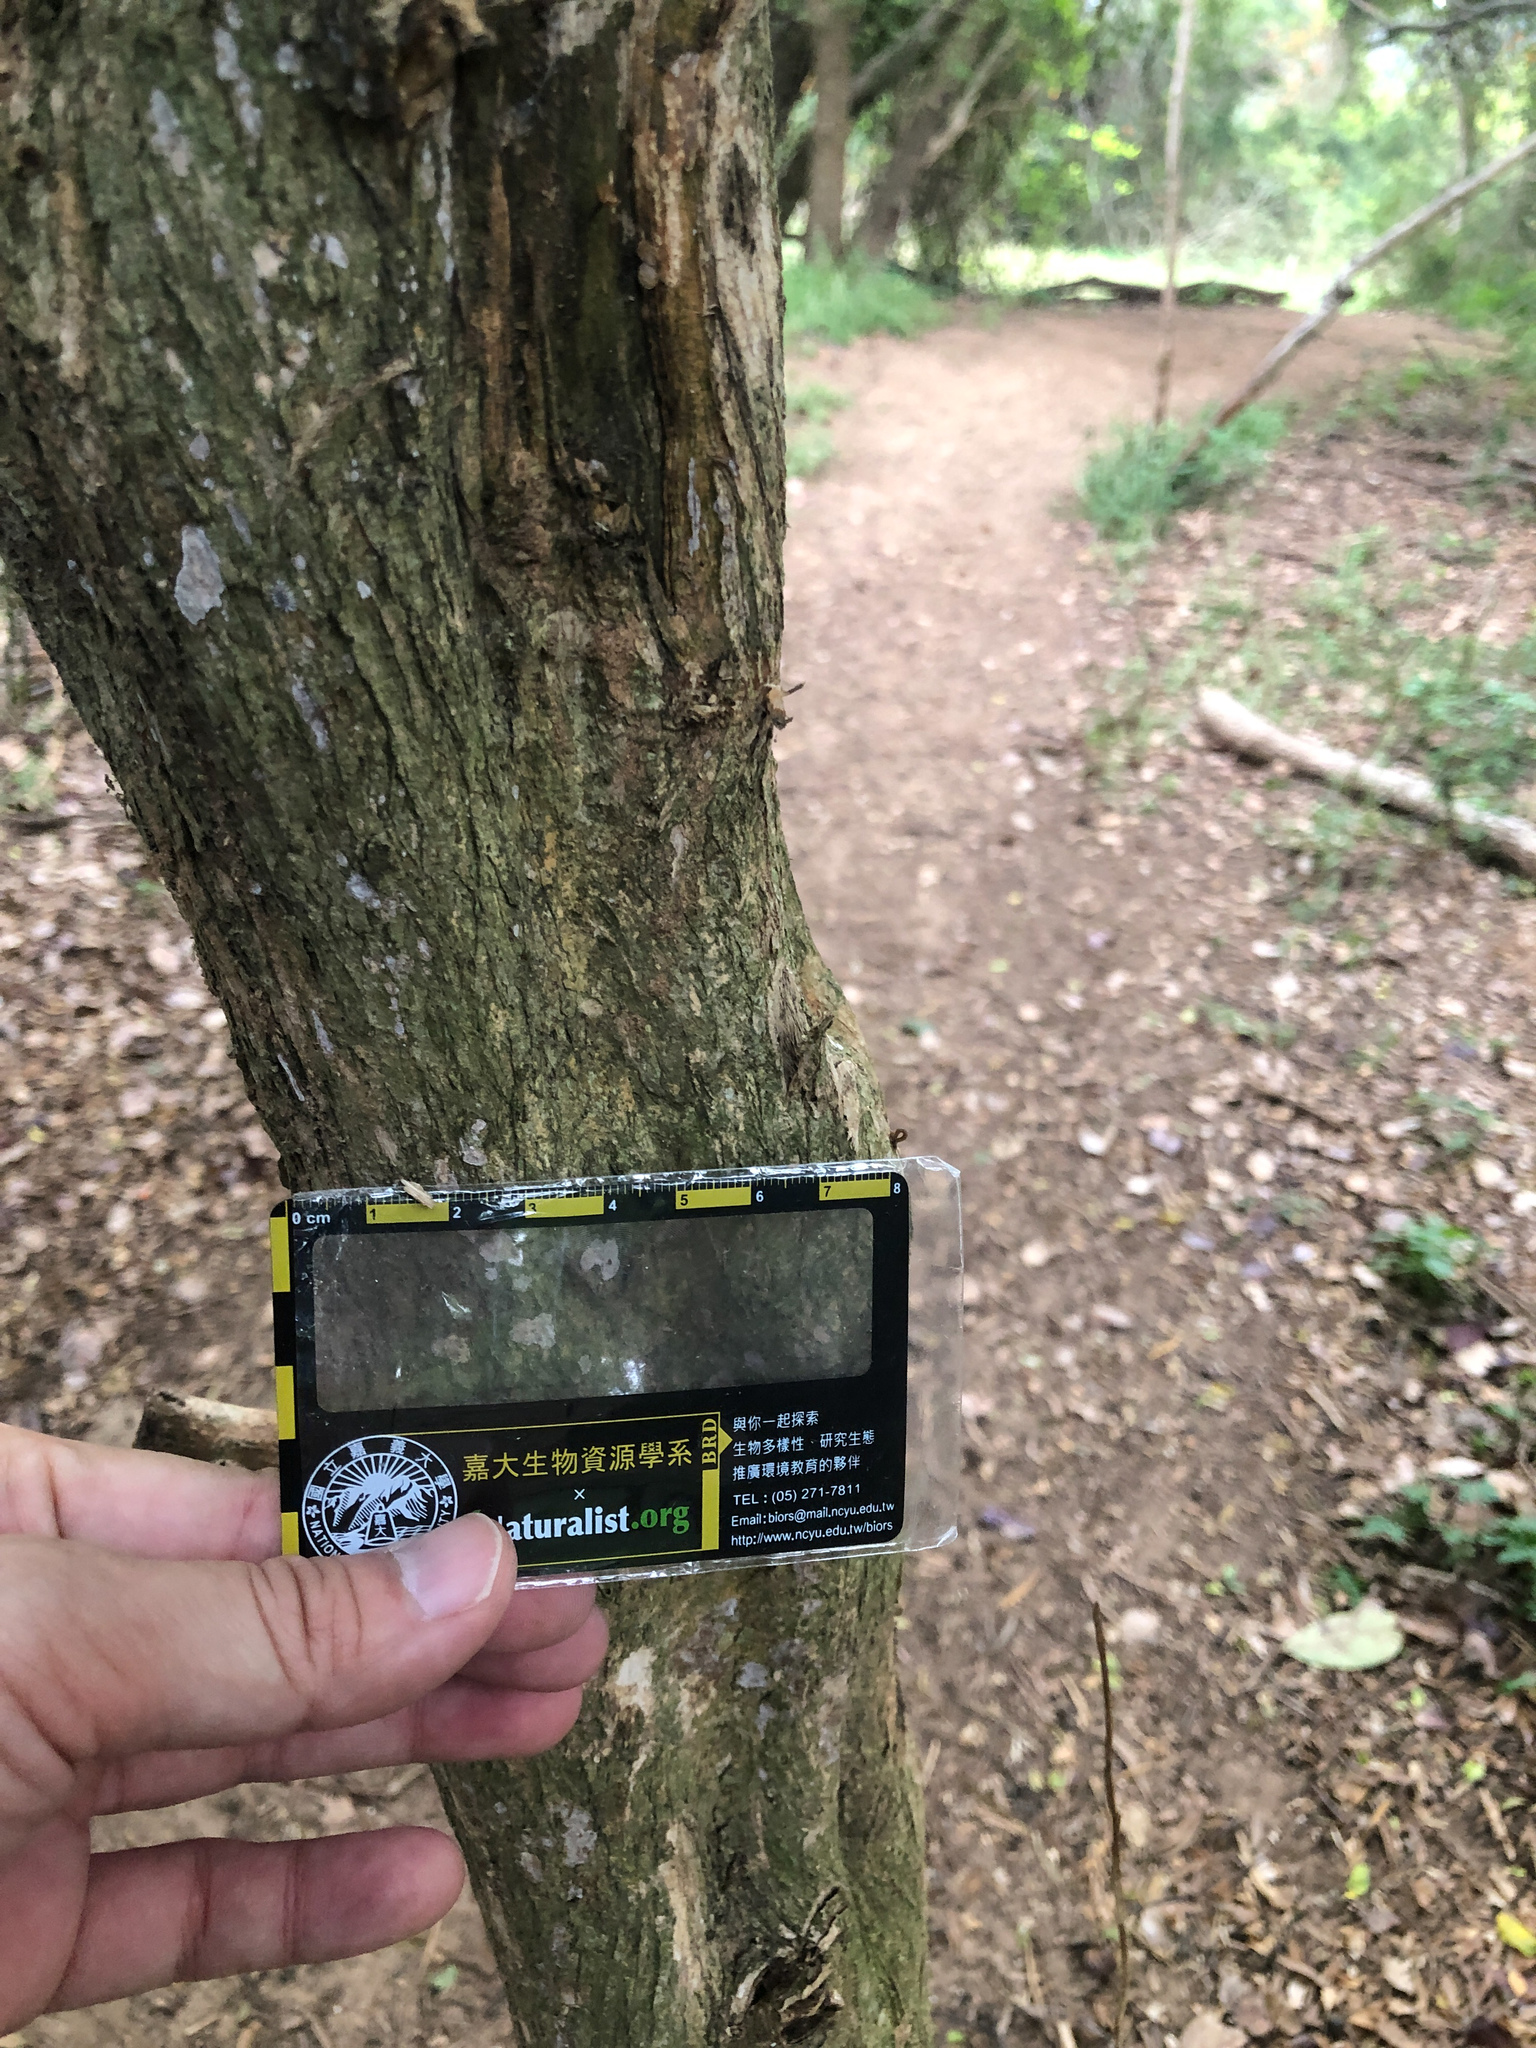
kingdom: Plantae
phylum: Tracheophyta
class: Magnoliopsida
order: Sapindales
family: Rutaceae
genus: Murraya
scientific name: Murraya paniculata
